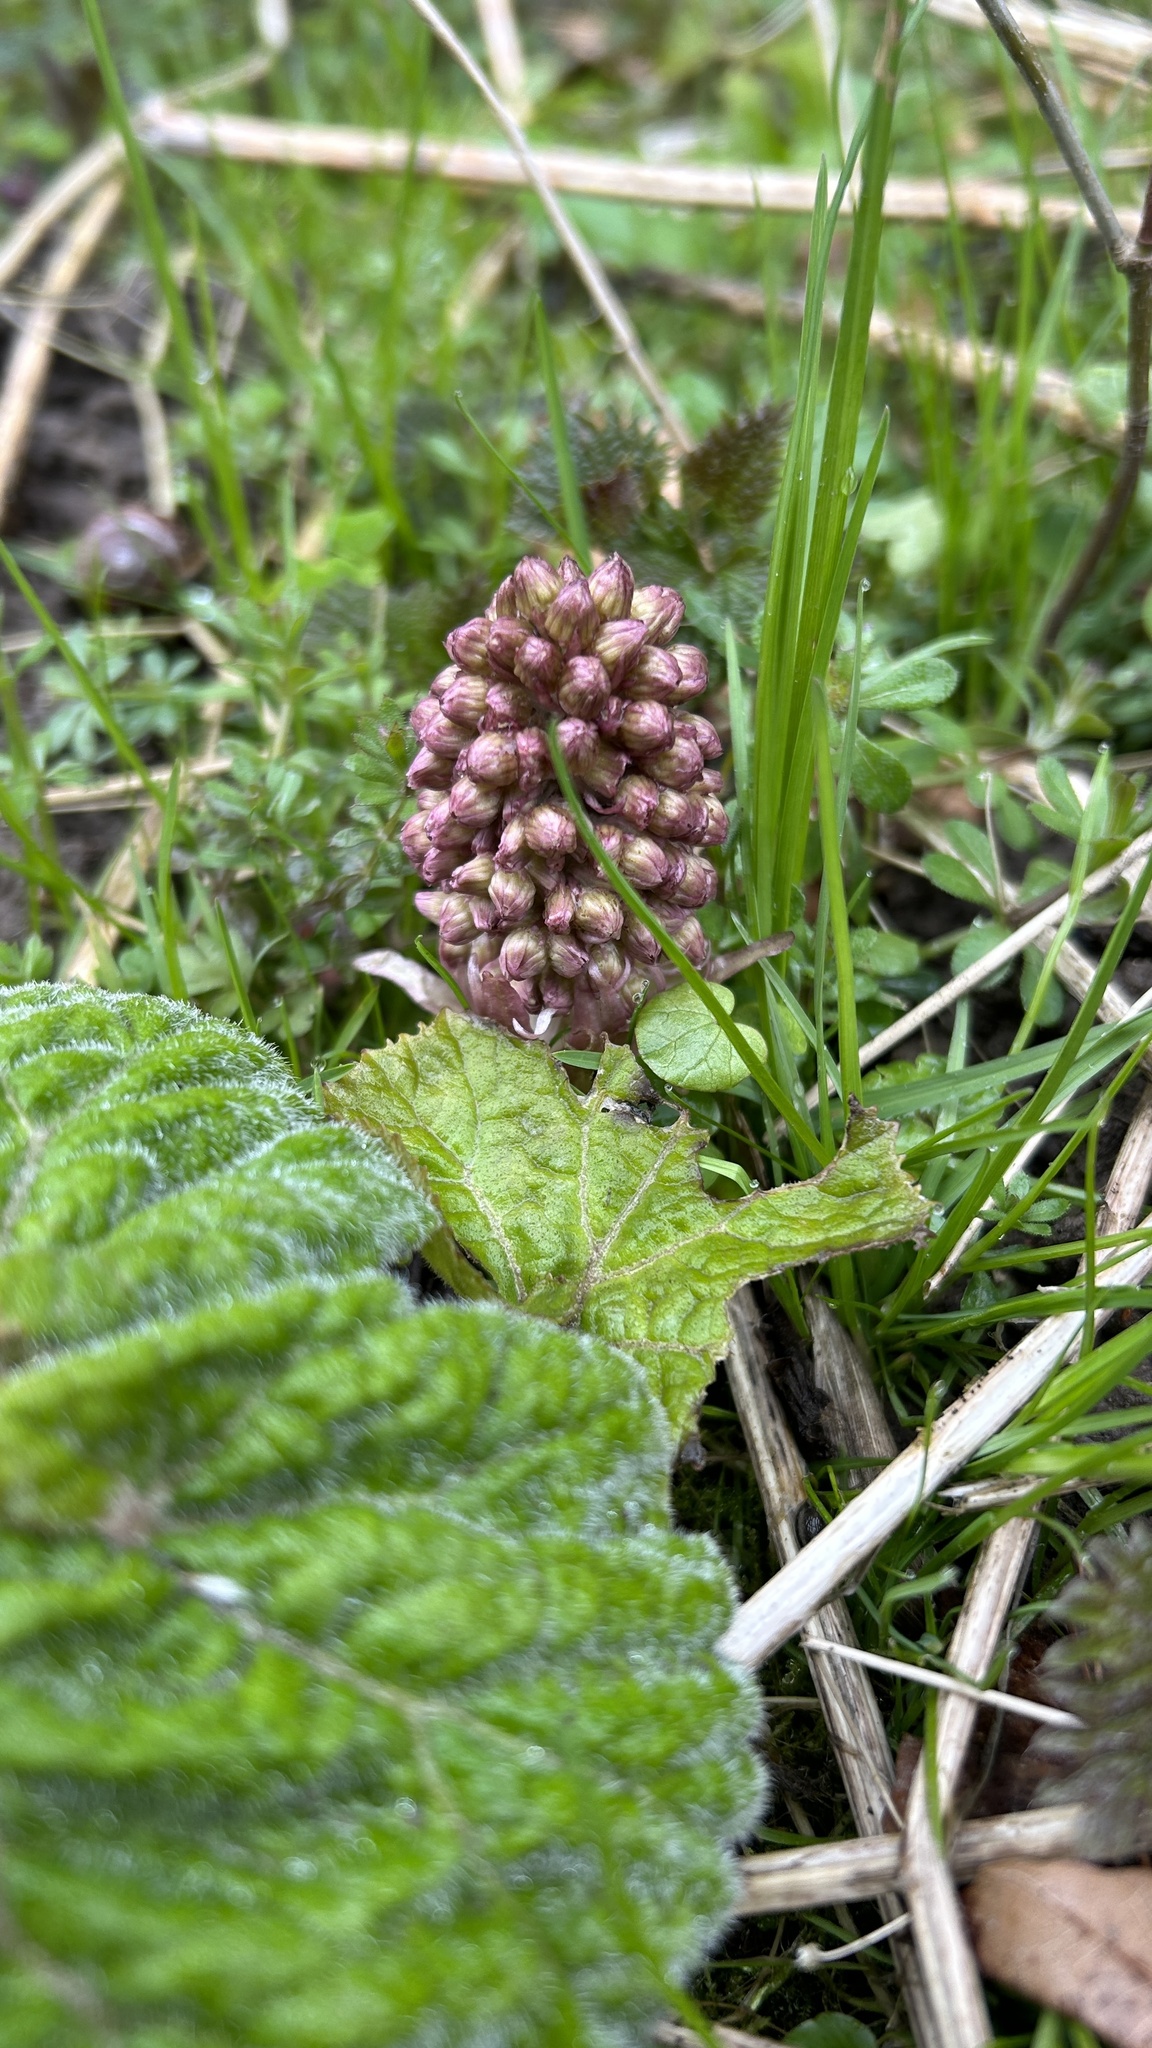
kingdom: Plantae
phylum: Tracheophyta
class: Magnoliopsida
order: Asterales
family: Asteraceae
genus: Petasites
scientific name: Petasites hybridus
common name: Butterbur
